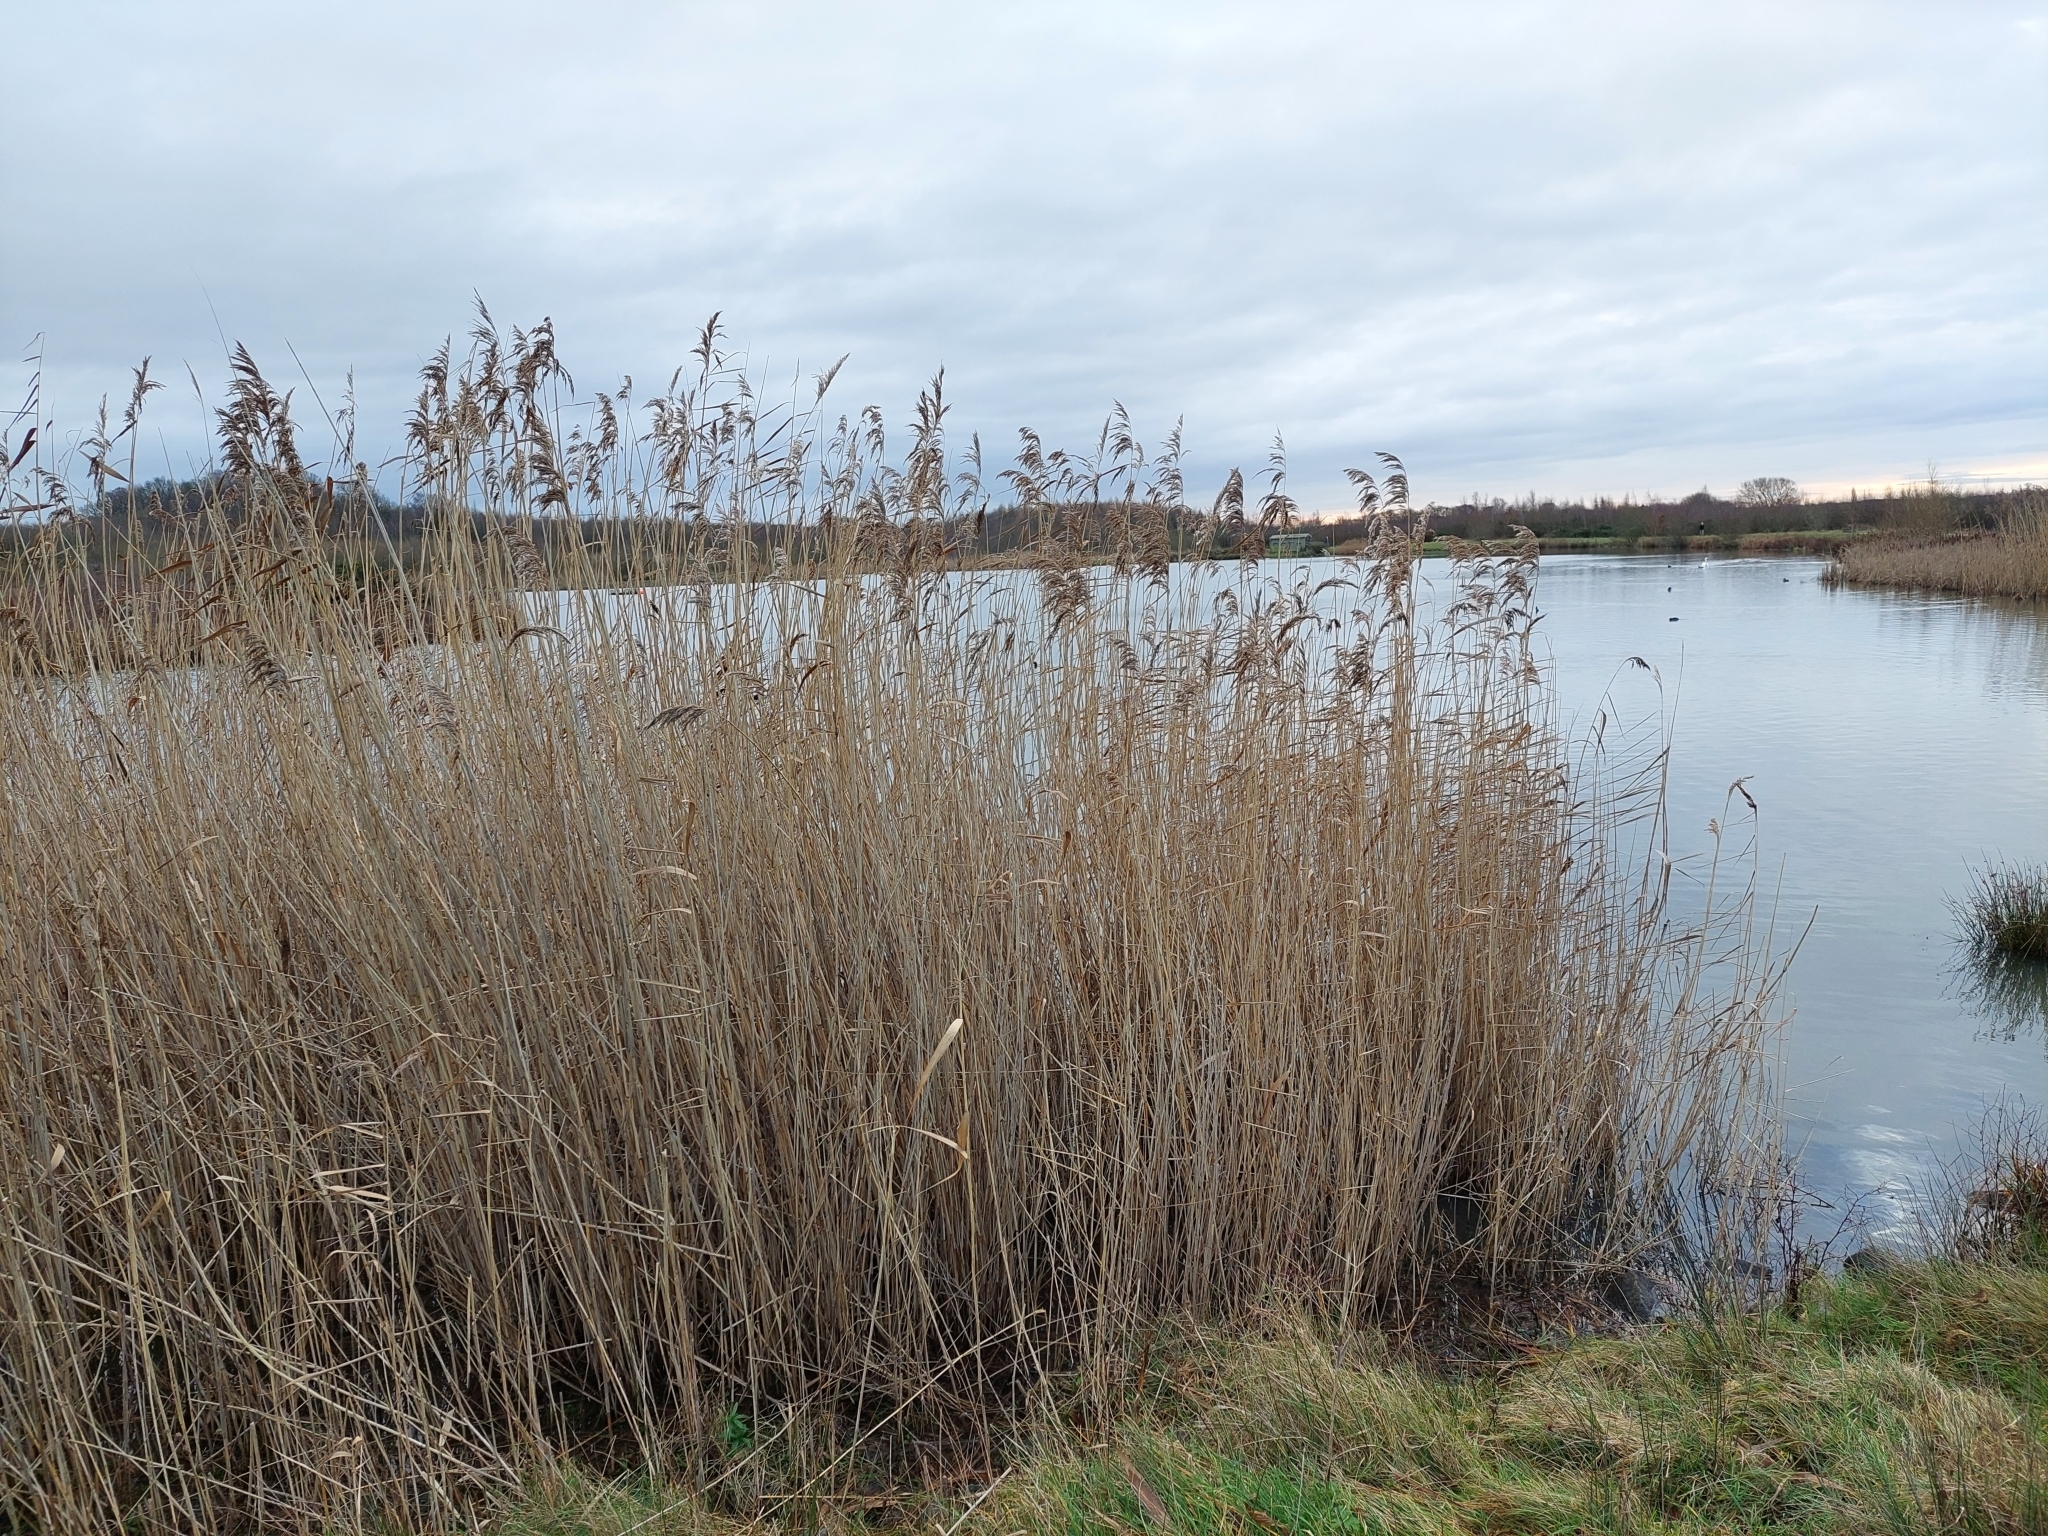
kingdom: Plantae
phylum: Tracheophyta
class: Liliopsida
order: Poales
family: Poaceae
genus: Phragmites
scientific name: Phragmites australis
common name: Common reed
